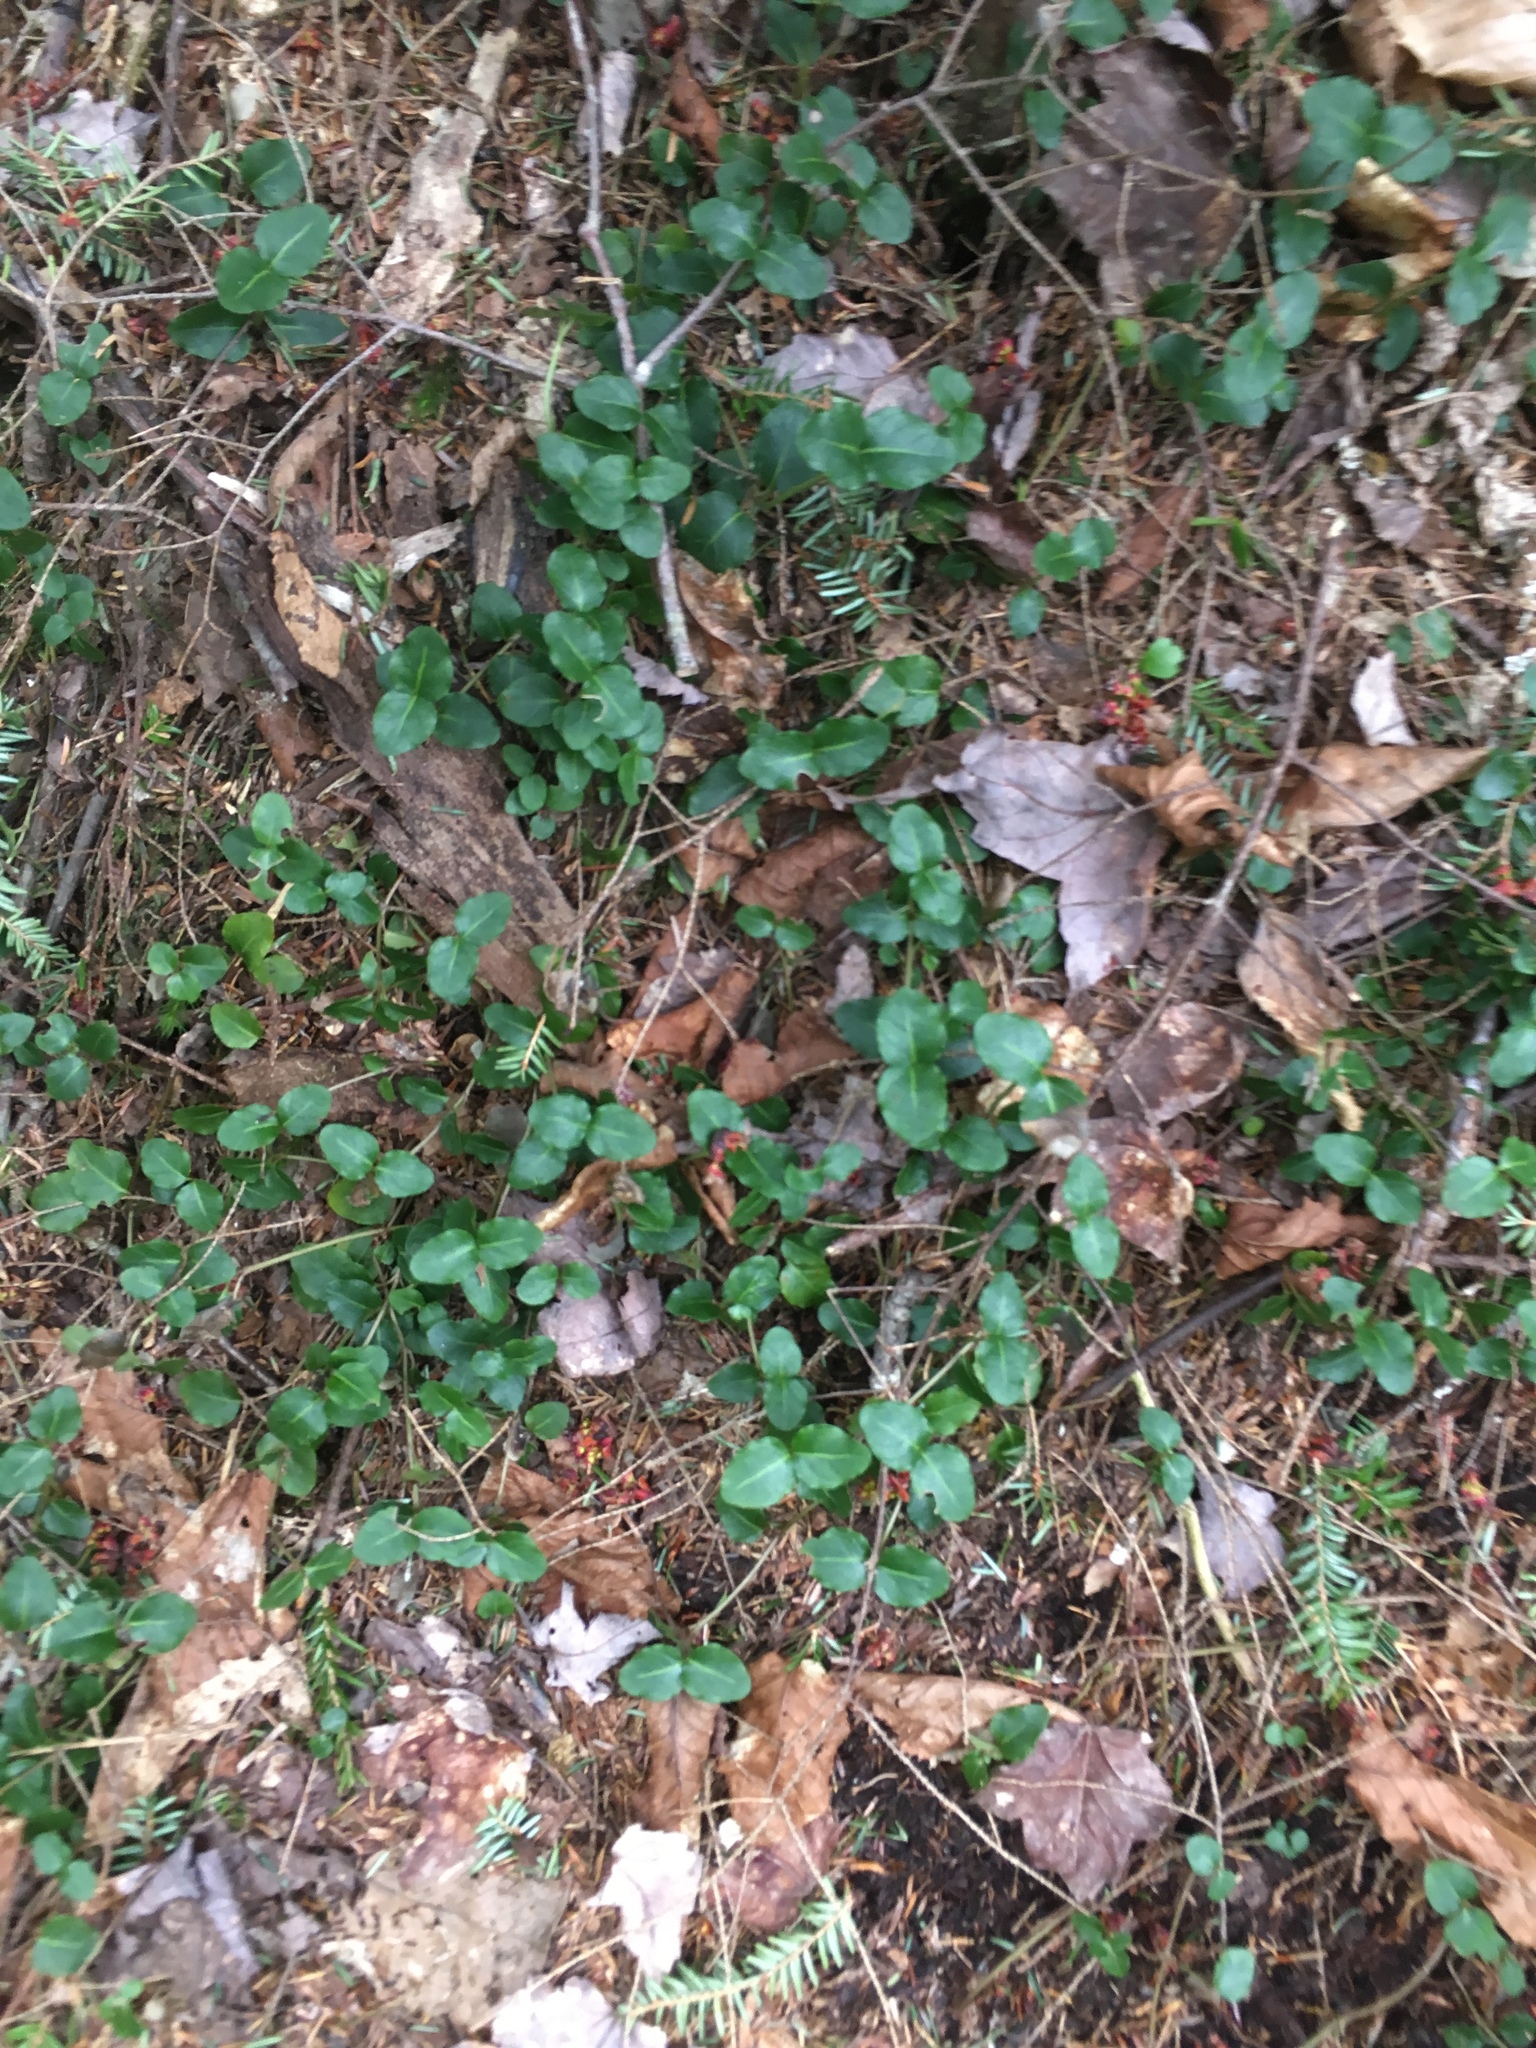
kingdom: Plantae
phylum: Tracheophyta
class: Magnoliopsida
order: Gentianales
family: Rubiaceae
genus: Mitchella
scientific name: Mitchella repens
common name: Partridge-berry
